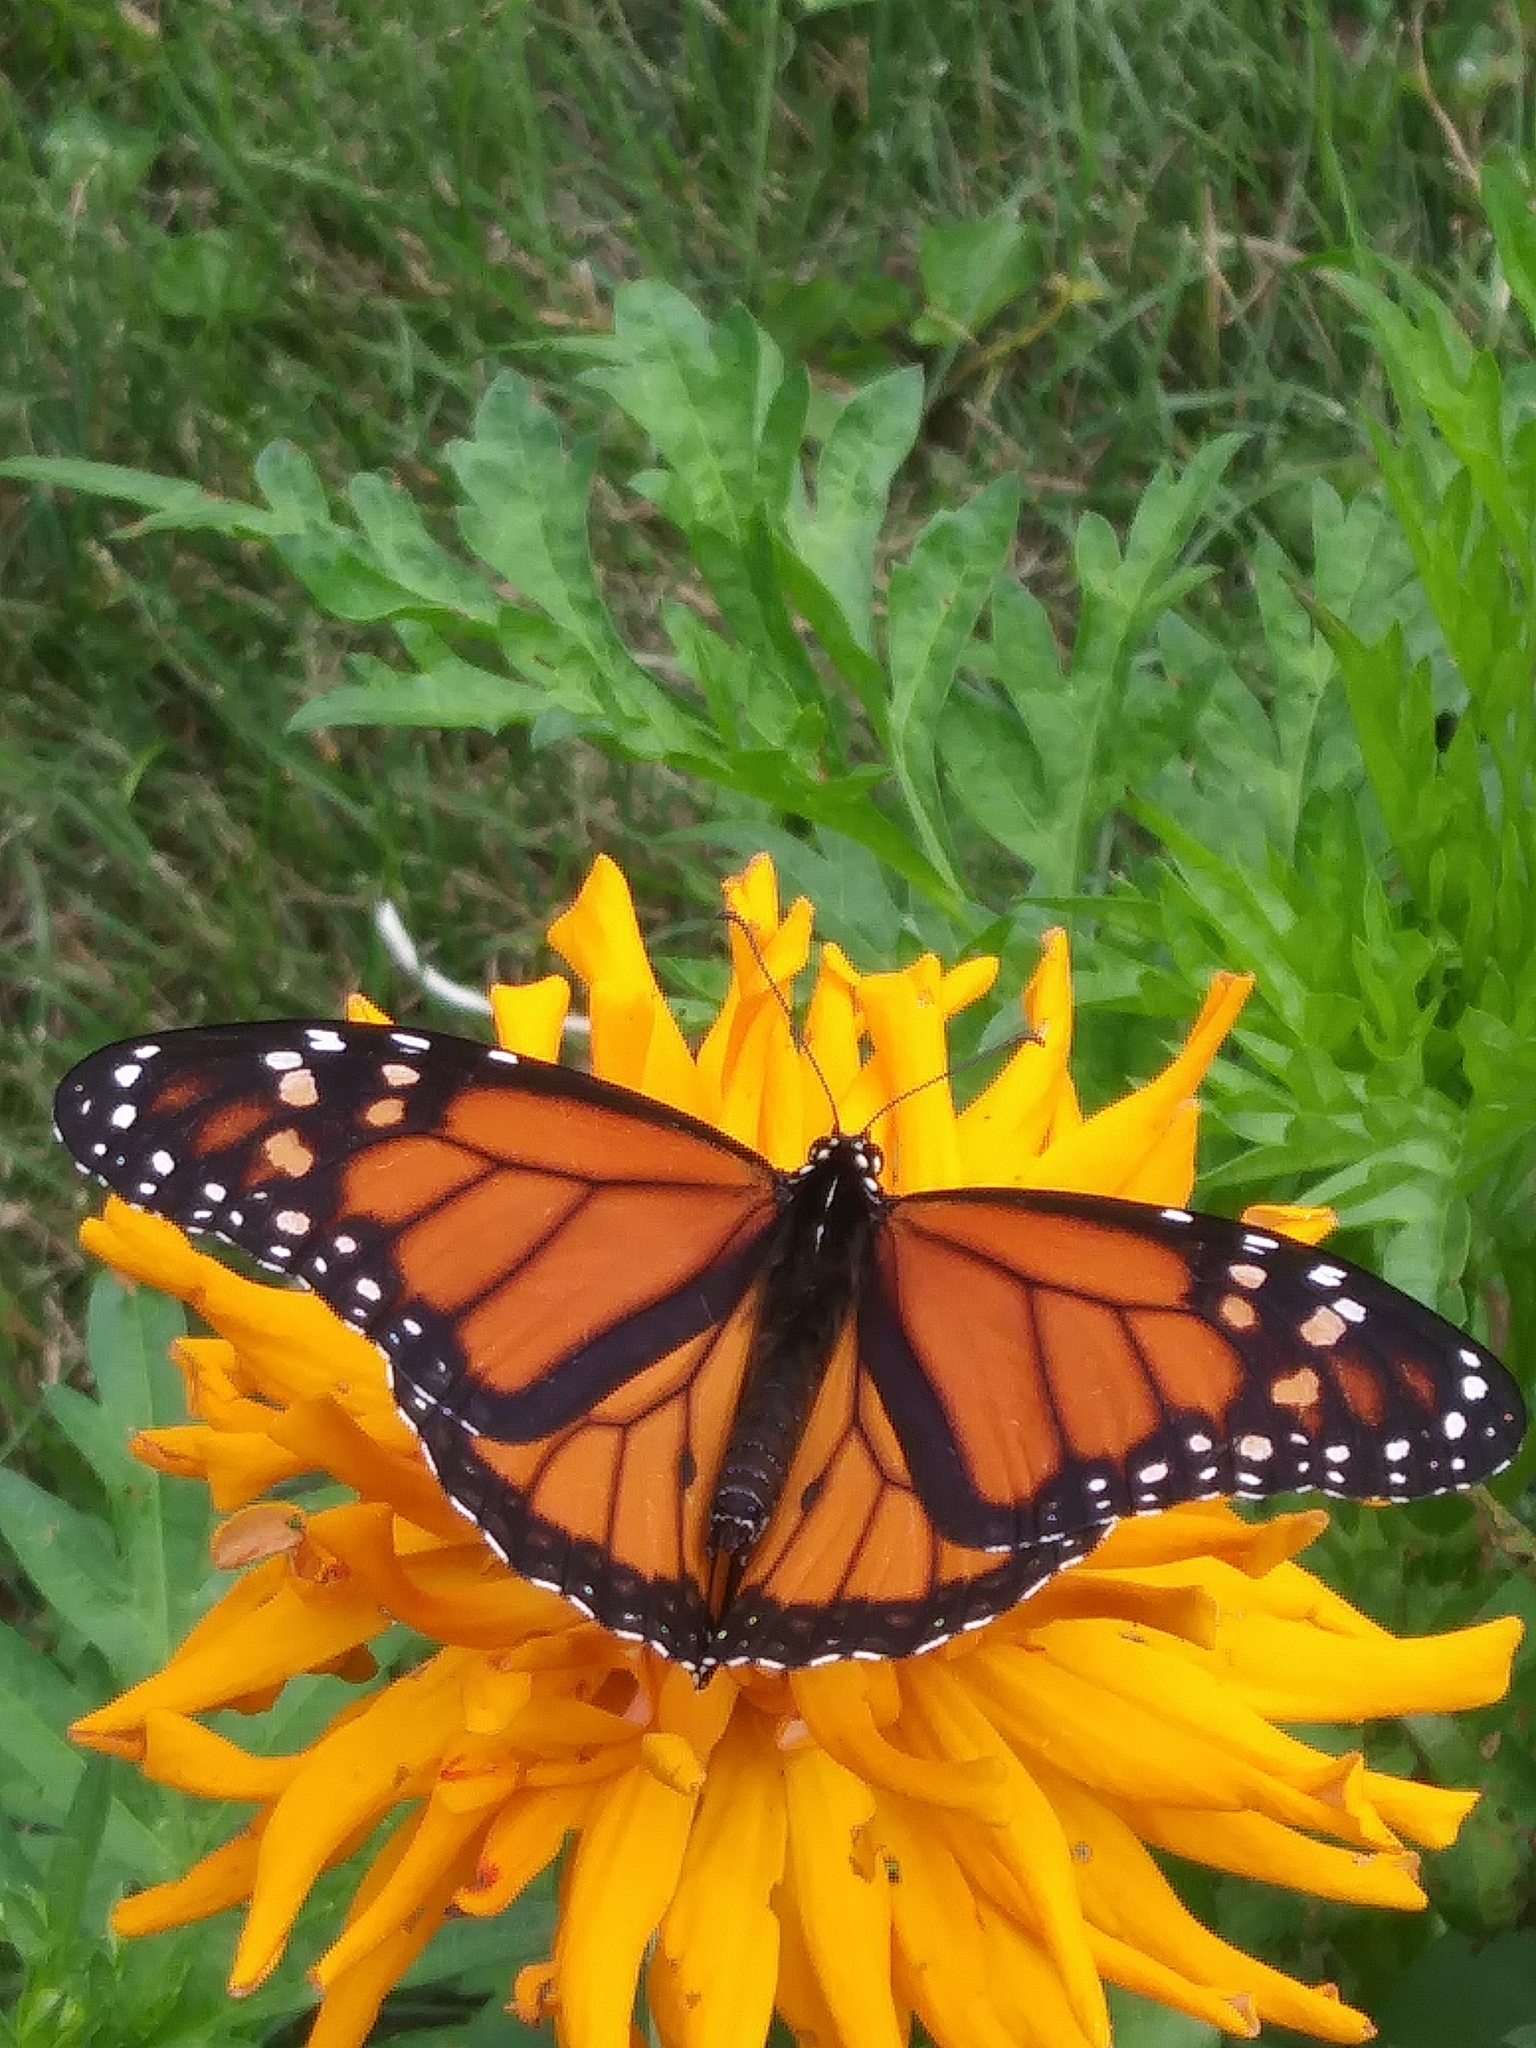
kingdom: Animalia
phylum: Arthropoda
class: Insecta
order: Lepidoptera
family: Nymphalidae
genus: Danaus
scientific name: Danaus plexippus
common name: Monarch
